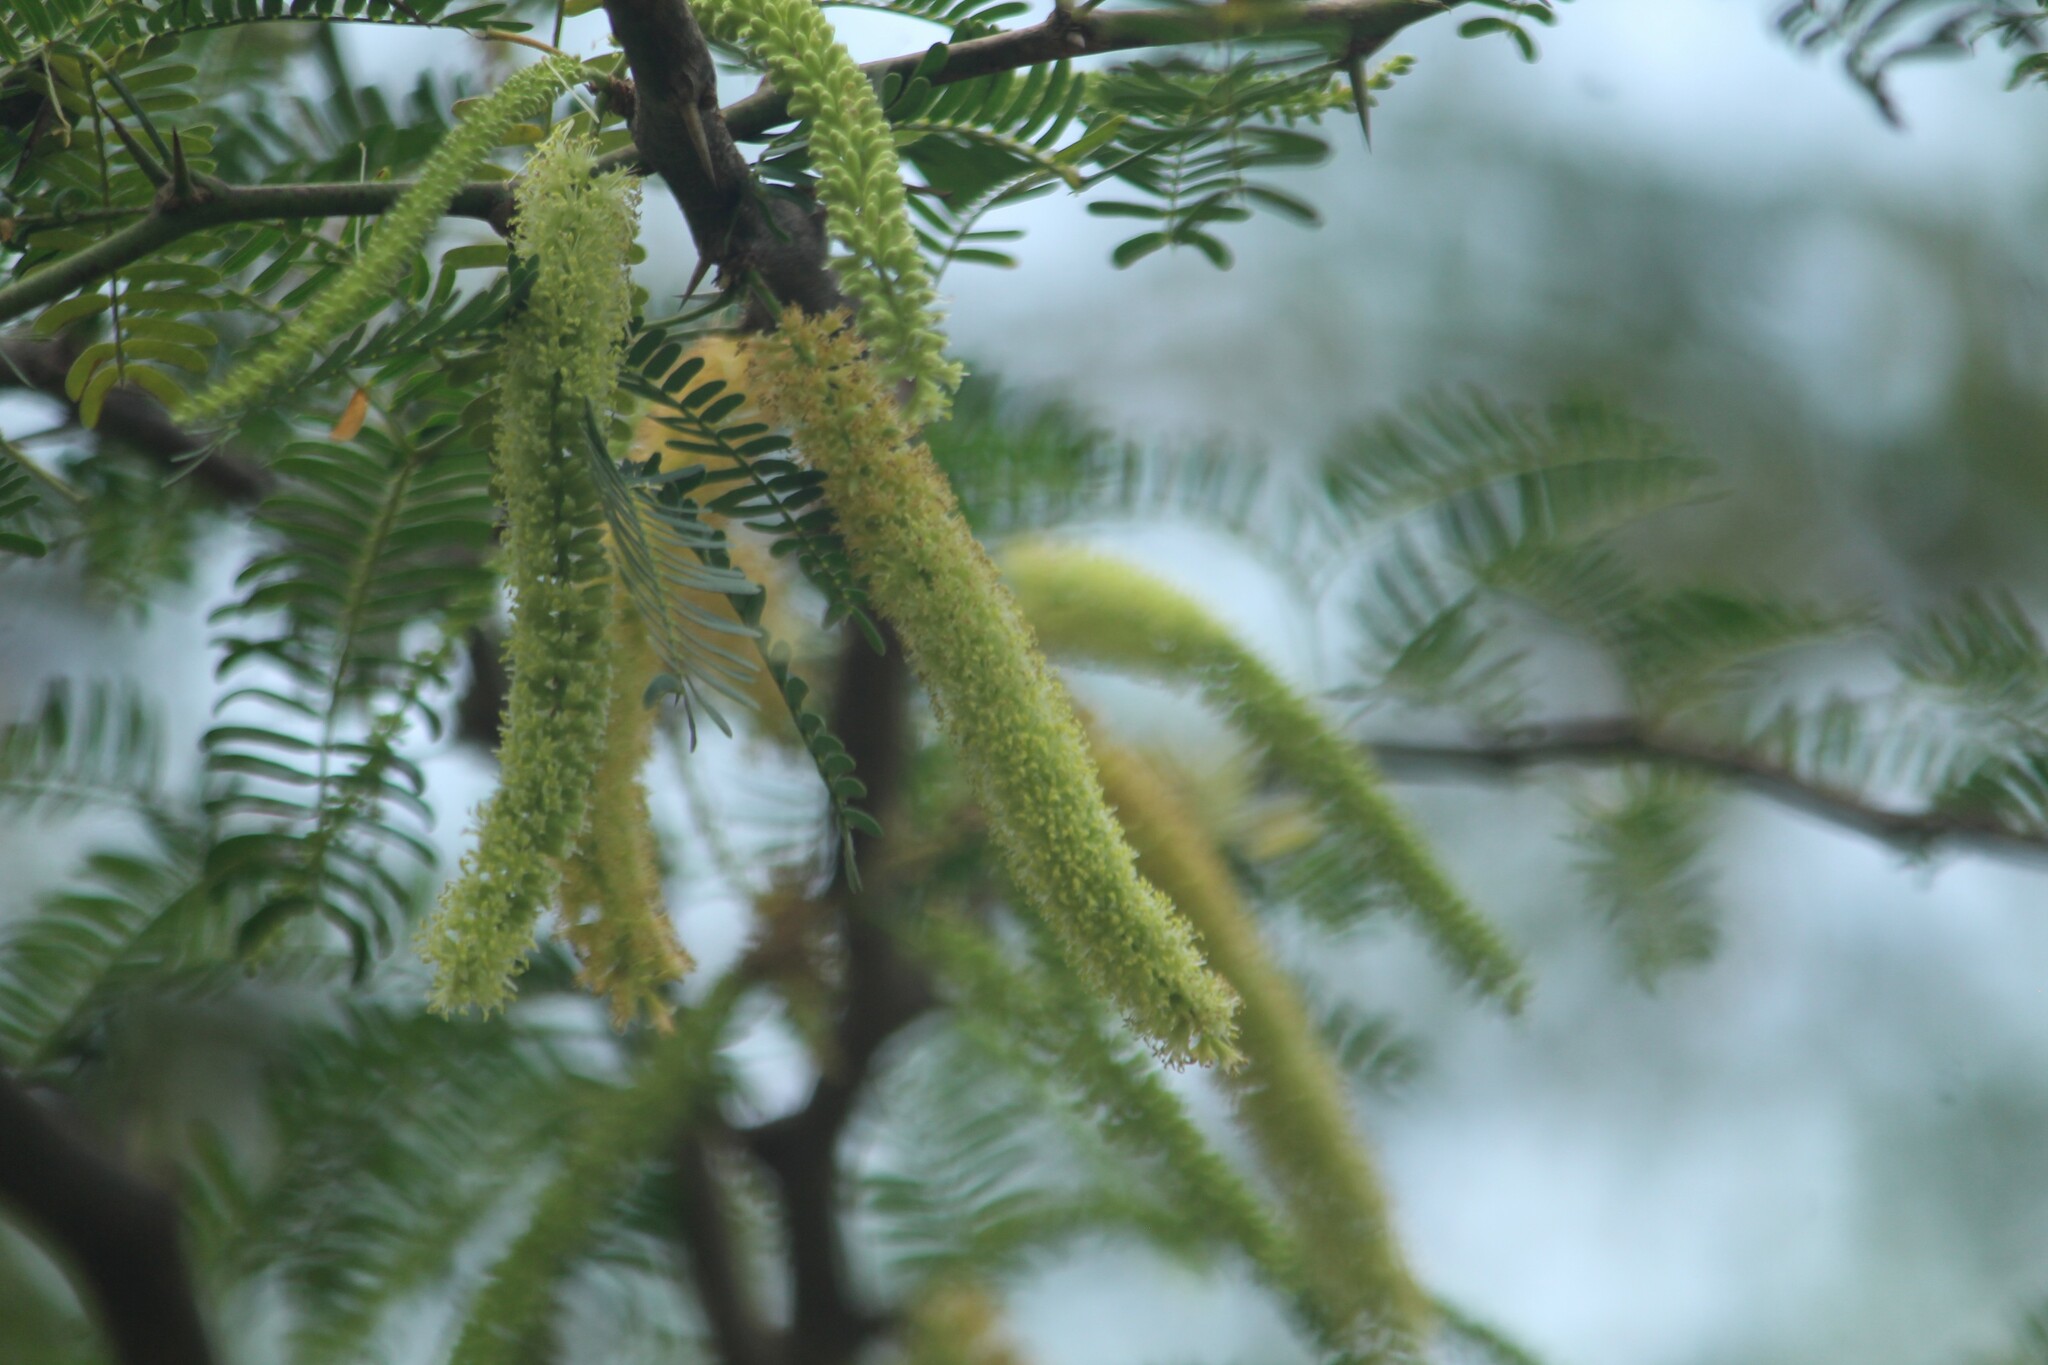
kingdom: Plantae
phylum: Tracheophyta
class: Magnoliopsida
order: Fabales
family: Fabaceae
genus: Prosopis
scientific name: Prosopis juliflora
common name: Mesquite
